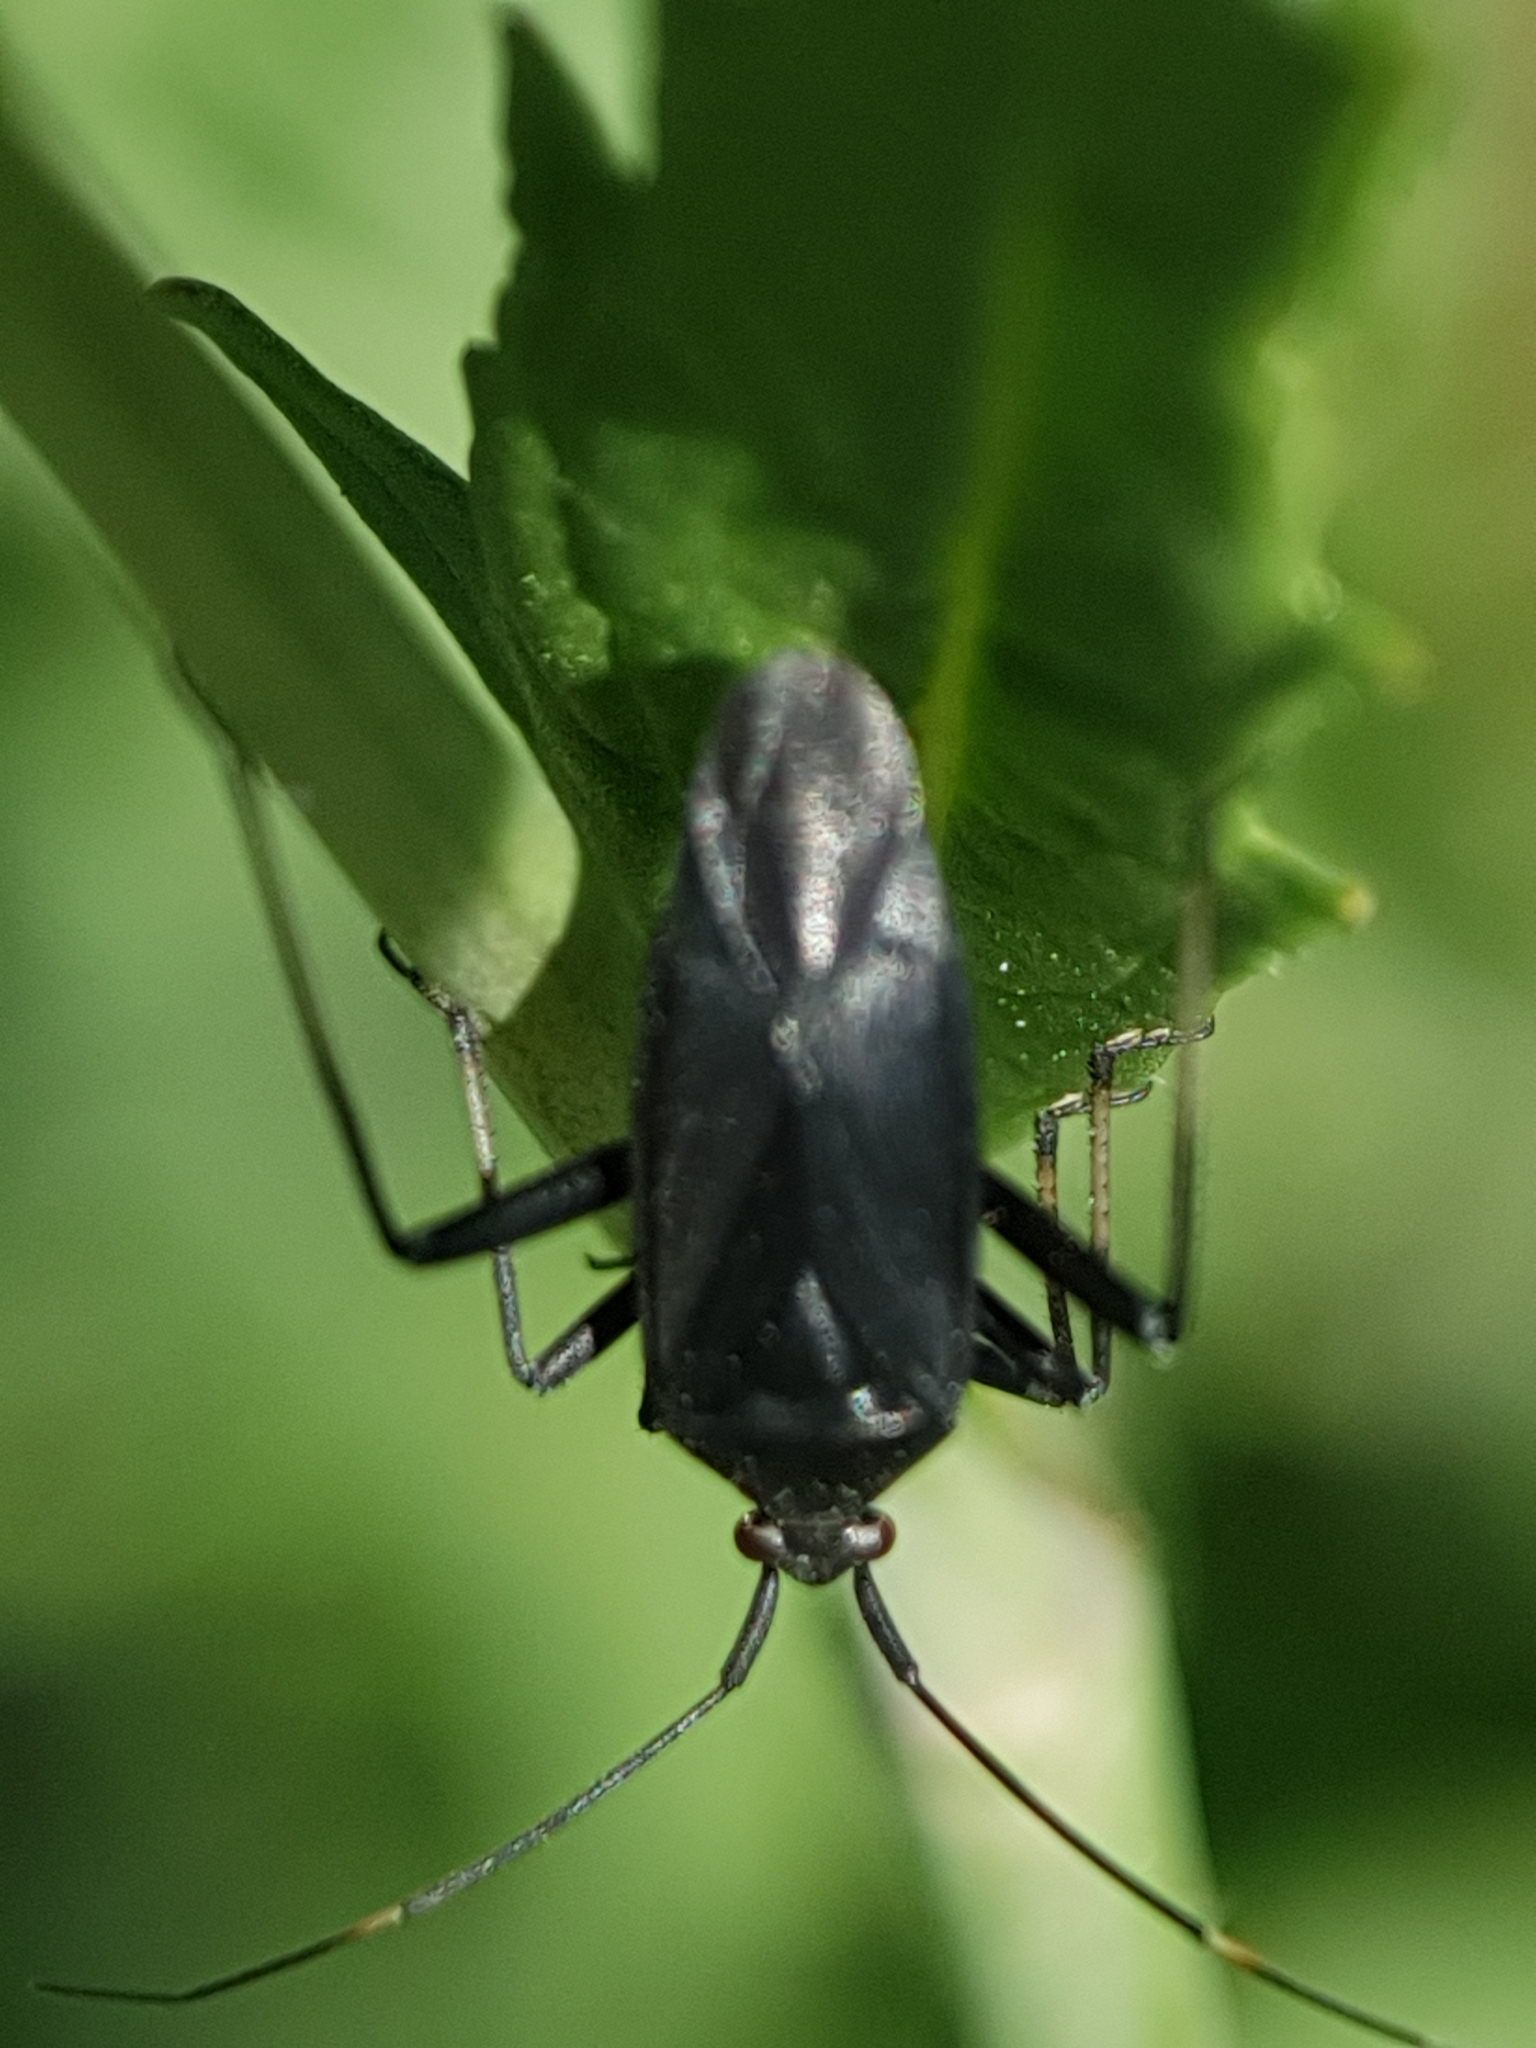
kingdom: Animalia
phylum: Arthropoda
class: Insecta
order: Hemiptera
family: Miridae
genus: Calocoris
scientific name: Calocoris nemoralis
